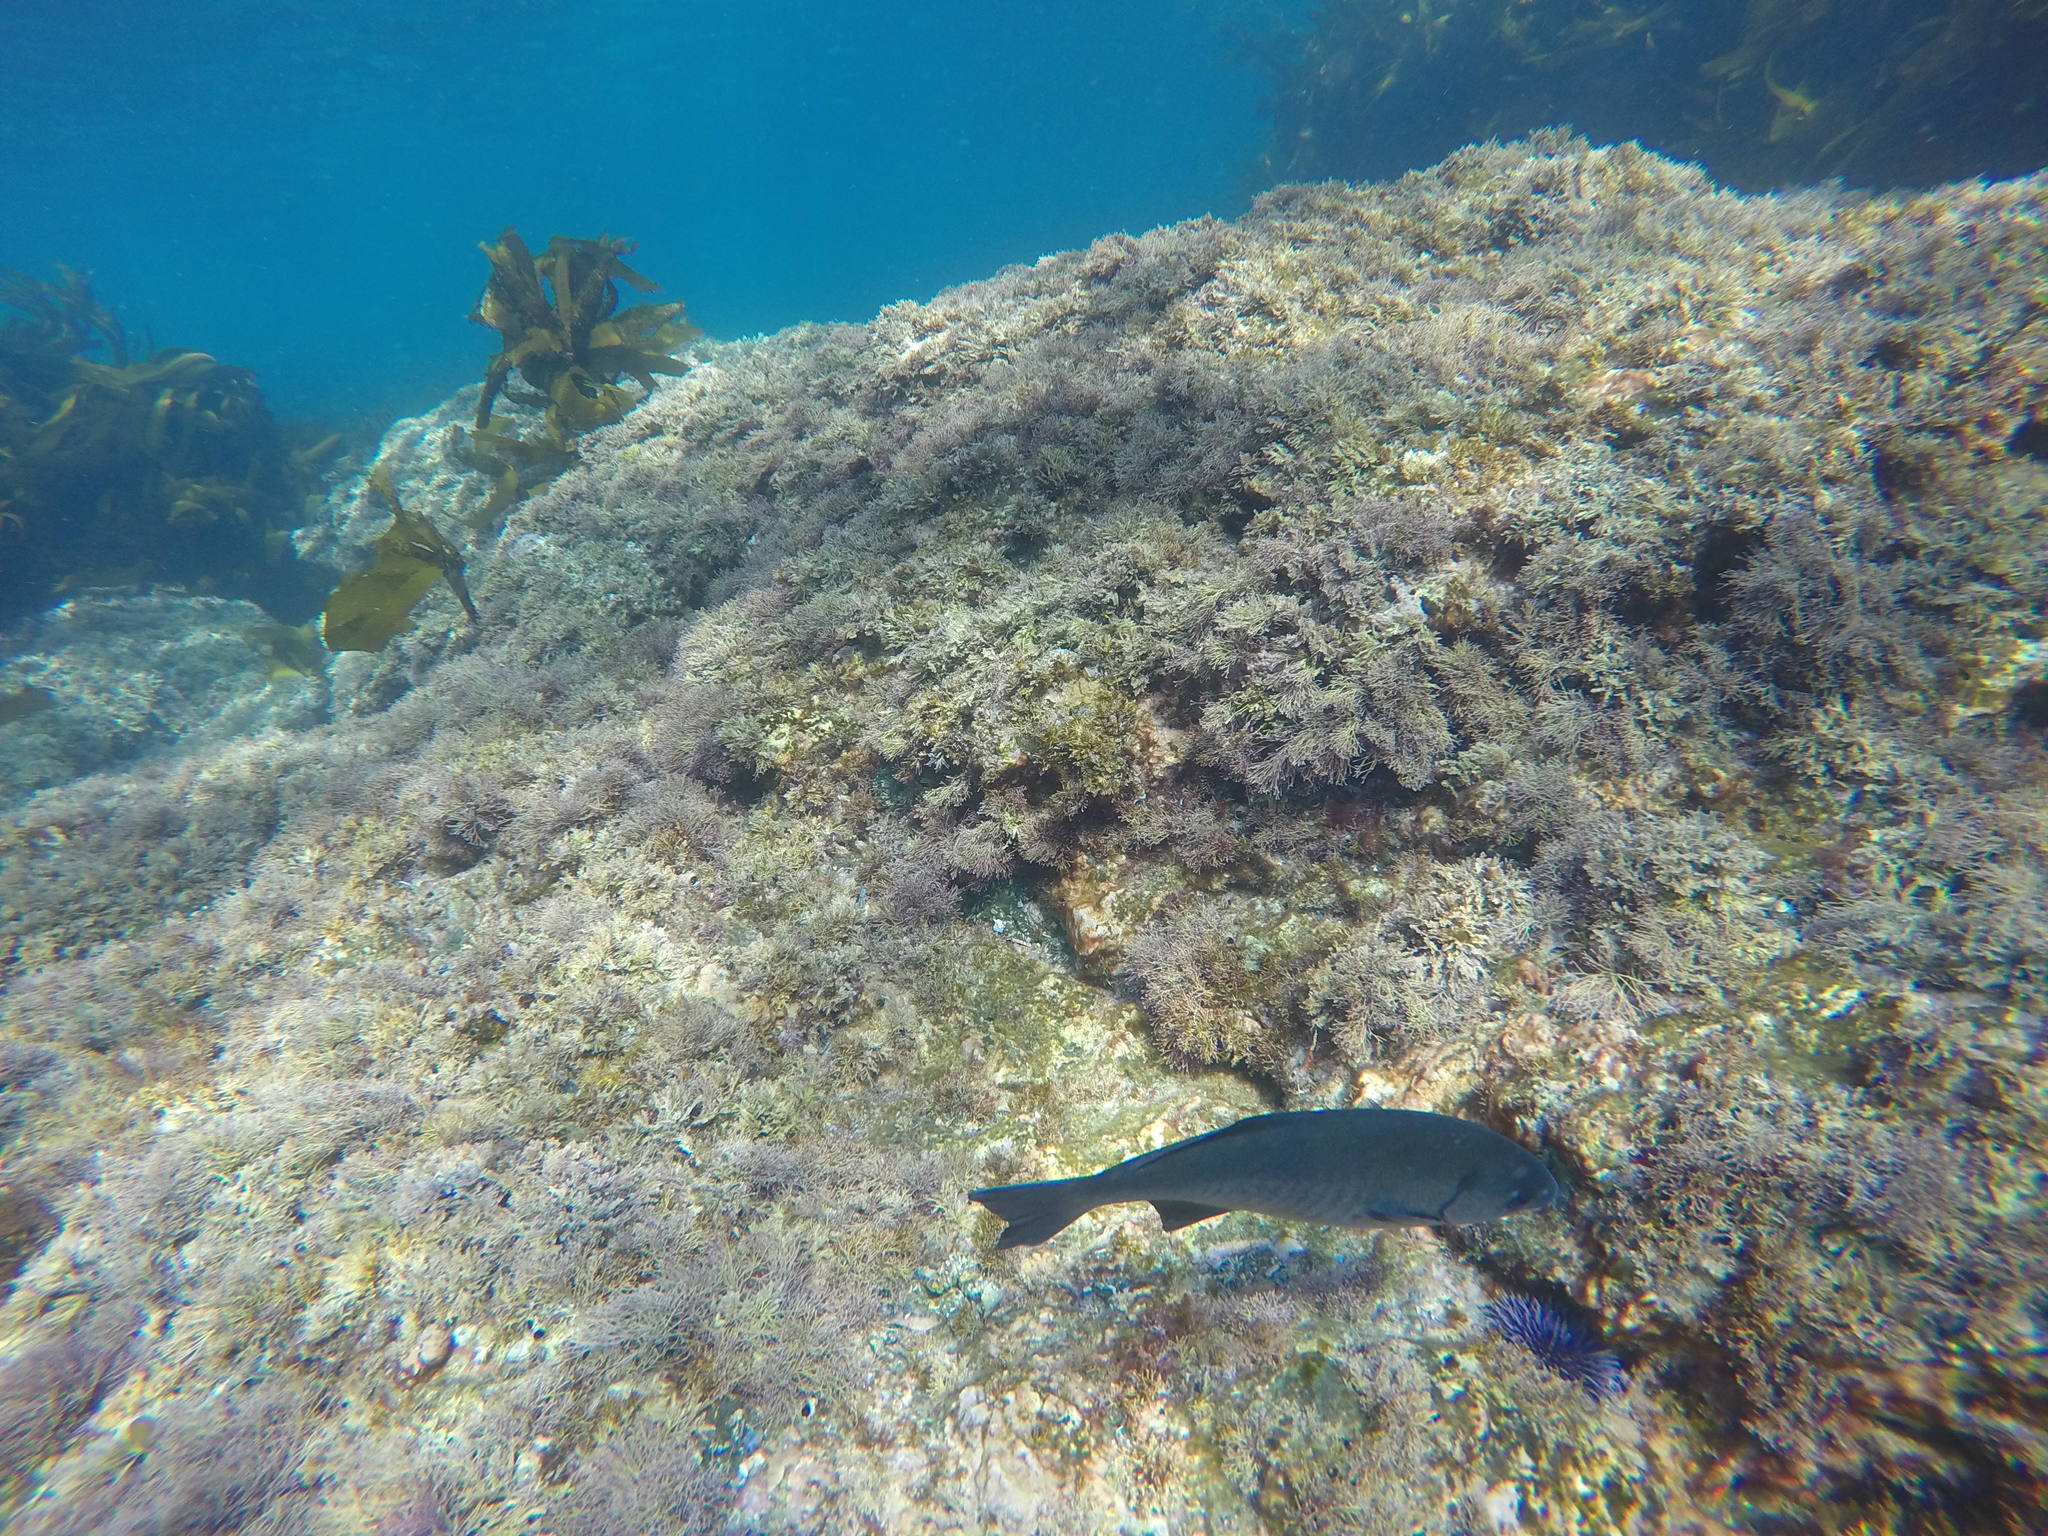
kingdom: Animalia
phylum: Chordata
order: Perciformes
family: Kyphosidae
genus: Medialuna
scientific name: Medialuna californiensis
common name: Halfmoon
